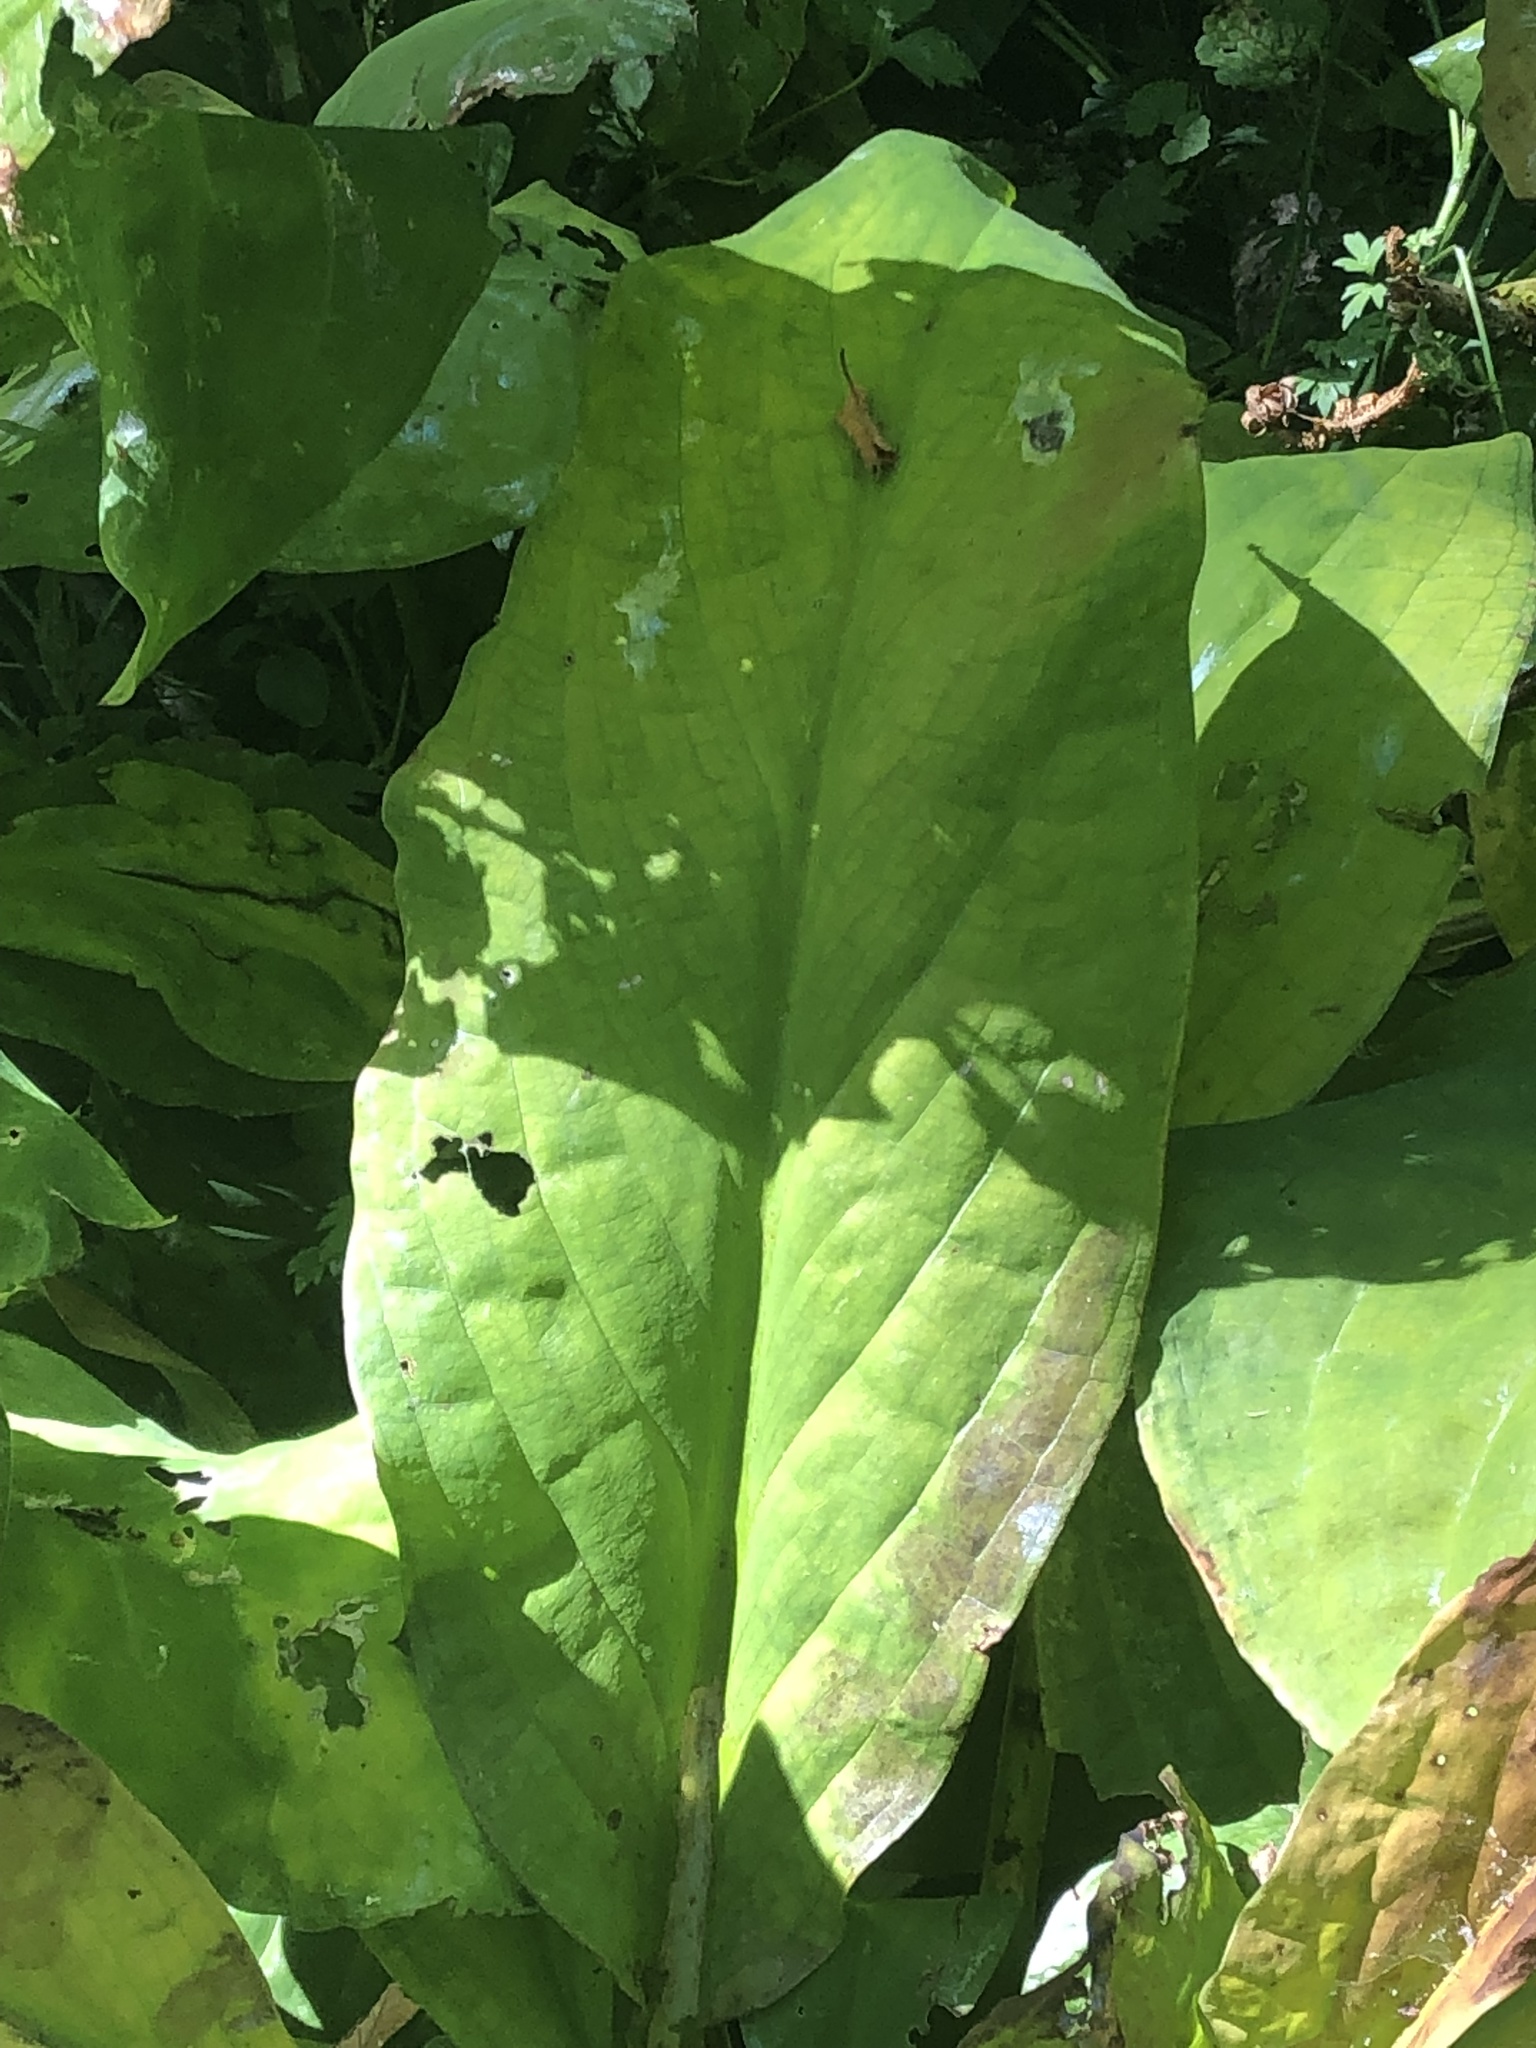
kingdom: Plantae
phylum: Tracheophyta
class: Liliopsida
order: Alismatales
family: Araceae
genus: Lysichiton
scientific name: Lysichiton americanus
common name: American skunk cabbage
